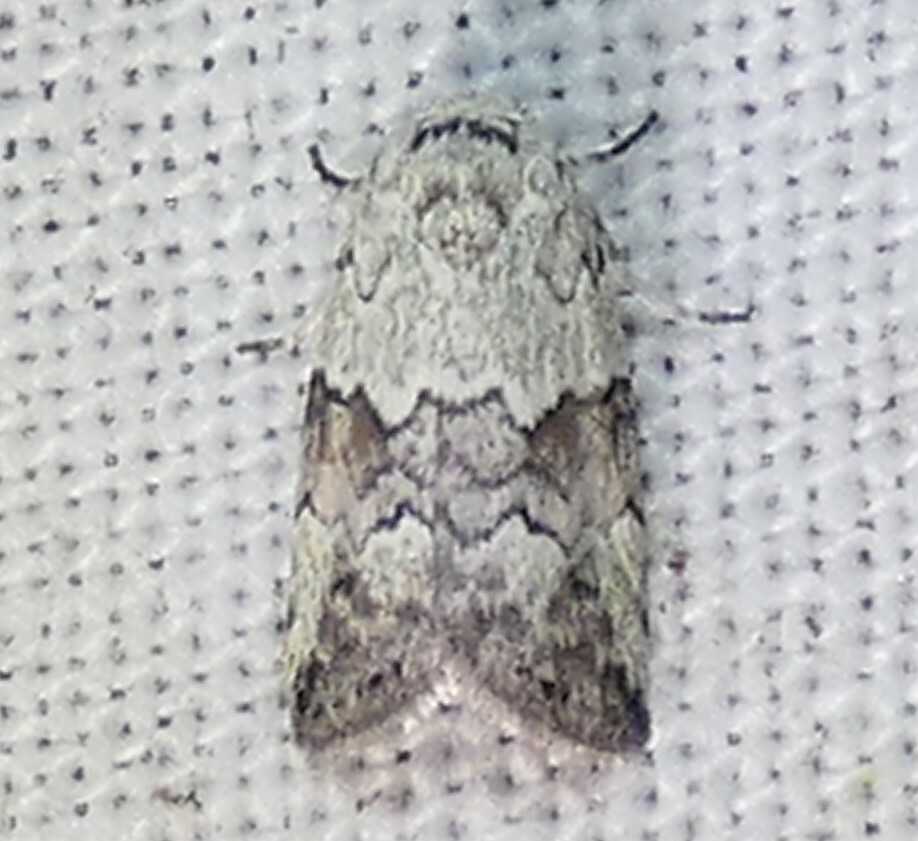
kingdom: Animalia
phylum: Arthropoda
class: Insecta
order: Lepidoptera
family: Nolidae
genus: Afrida
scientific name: Afrida ydatodes
